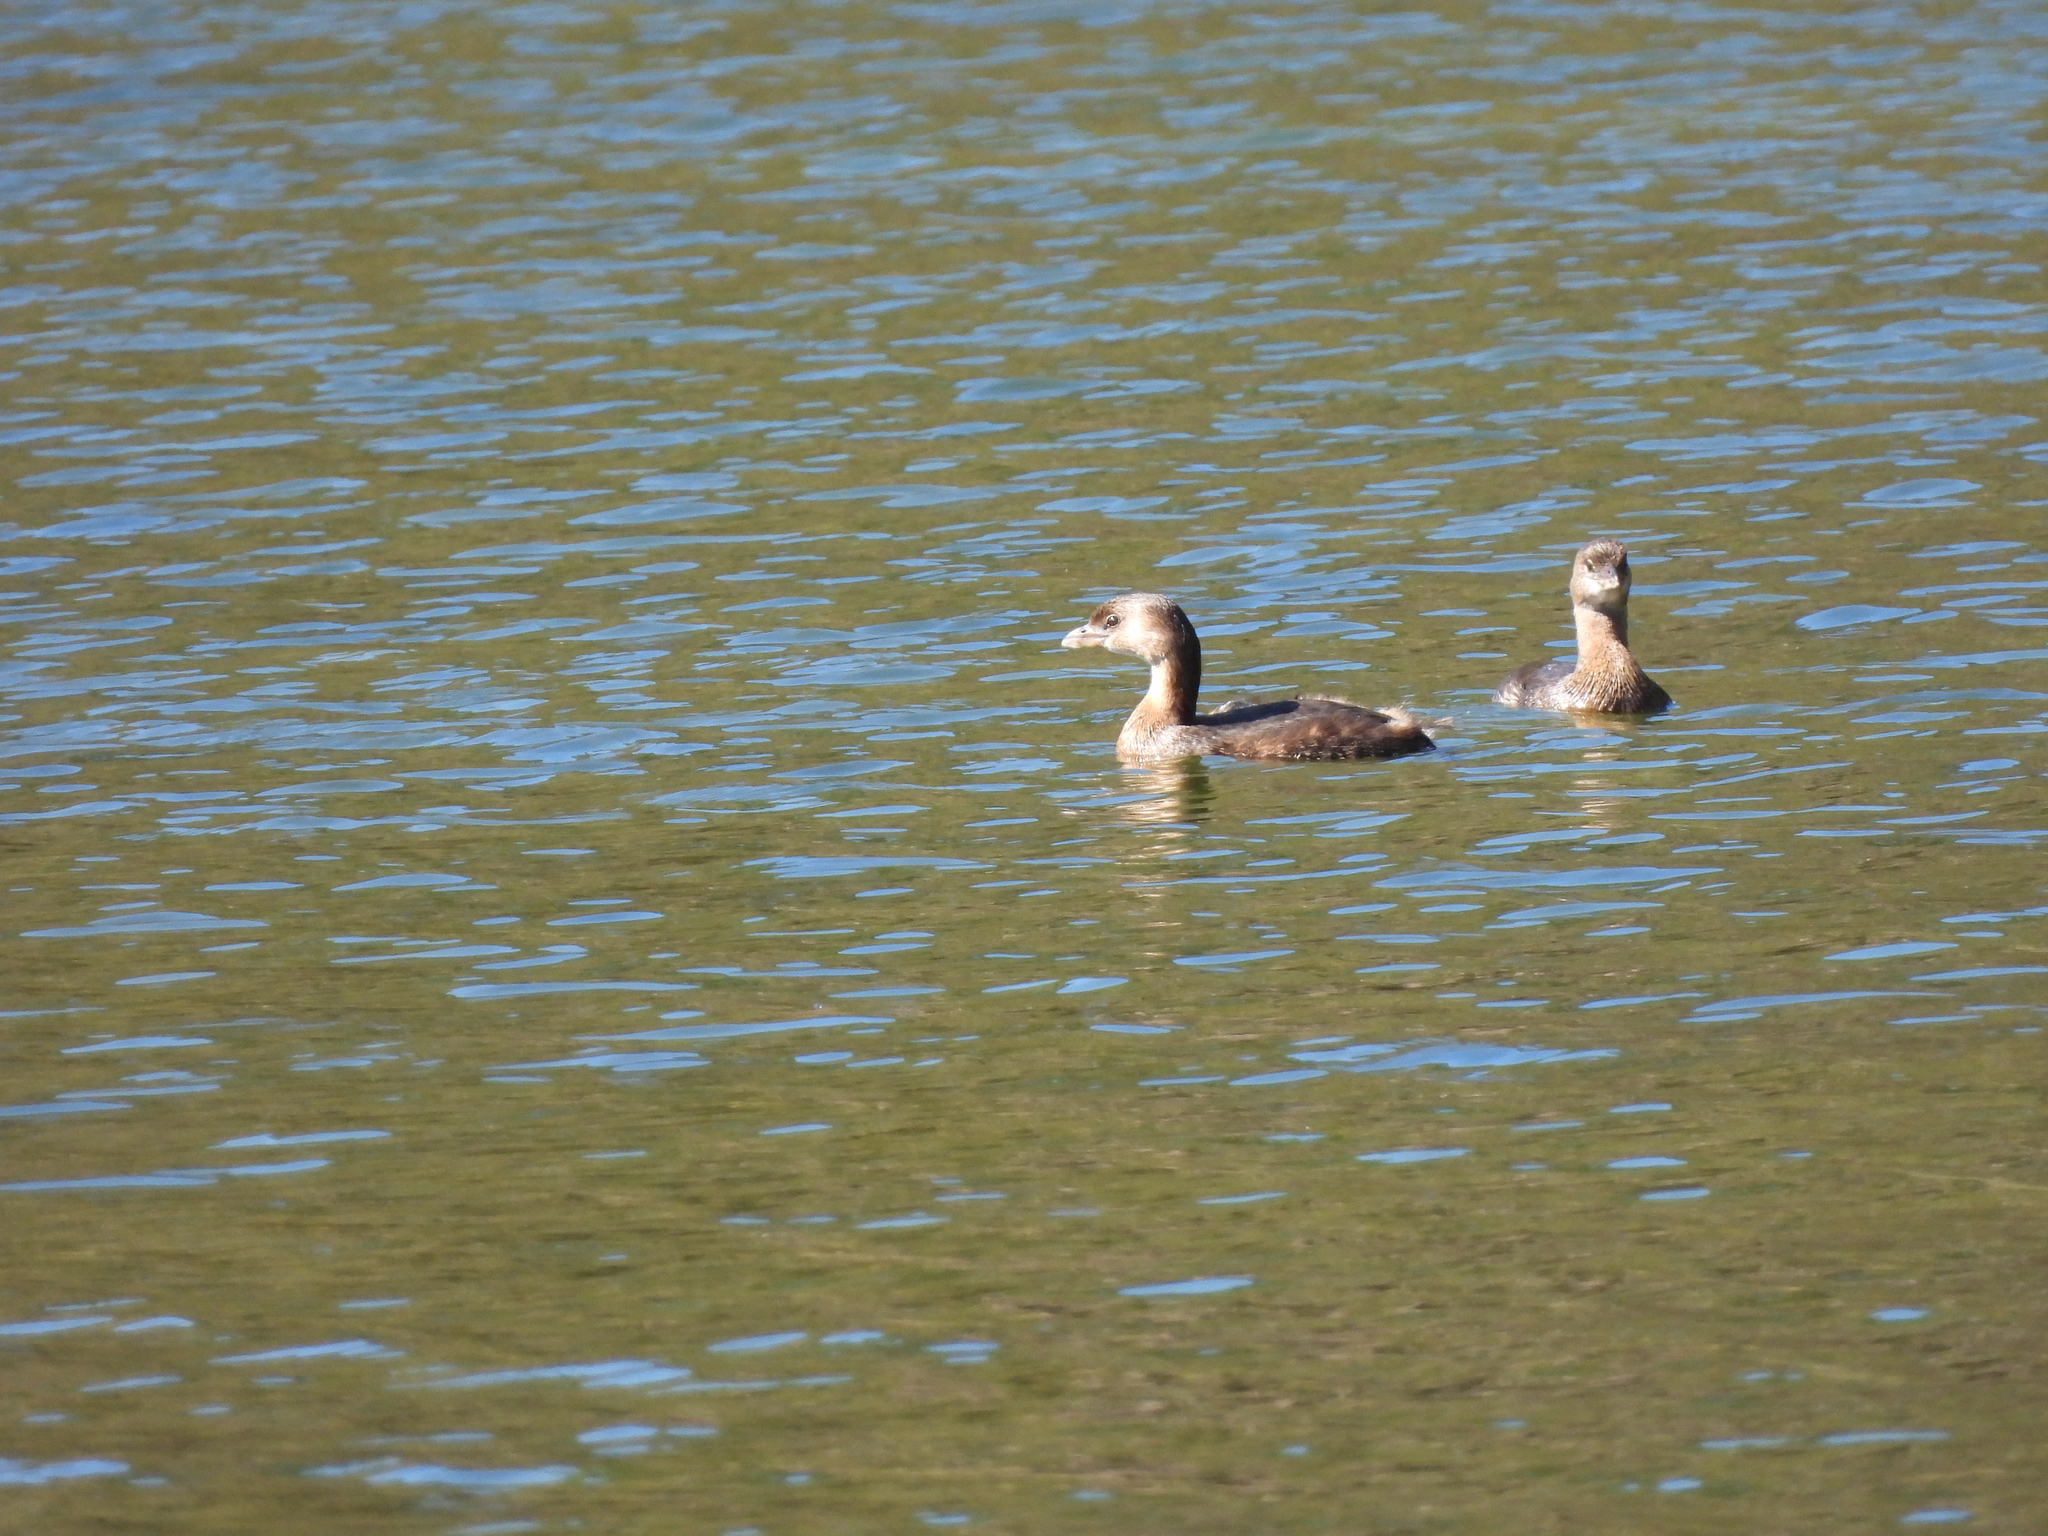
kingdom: Animalia
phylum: Chordata
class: Aves
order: Podicipediformes
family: Podicipedidae
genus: Podilymbus
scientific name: Podilymbus podiceps
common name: Pied-billed grebe
